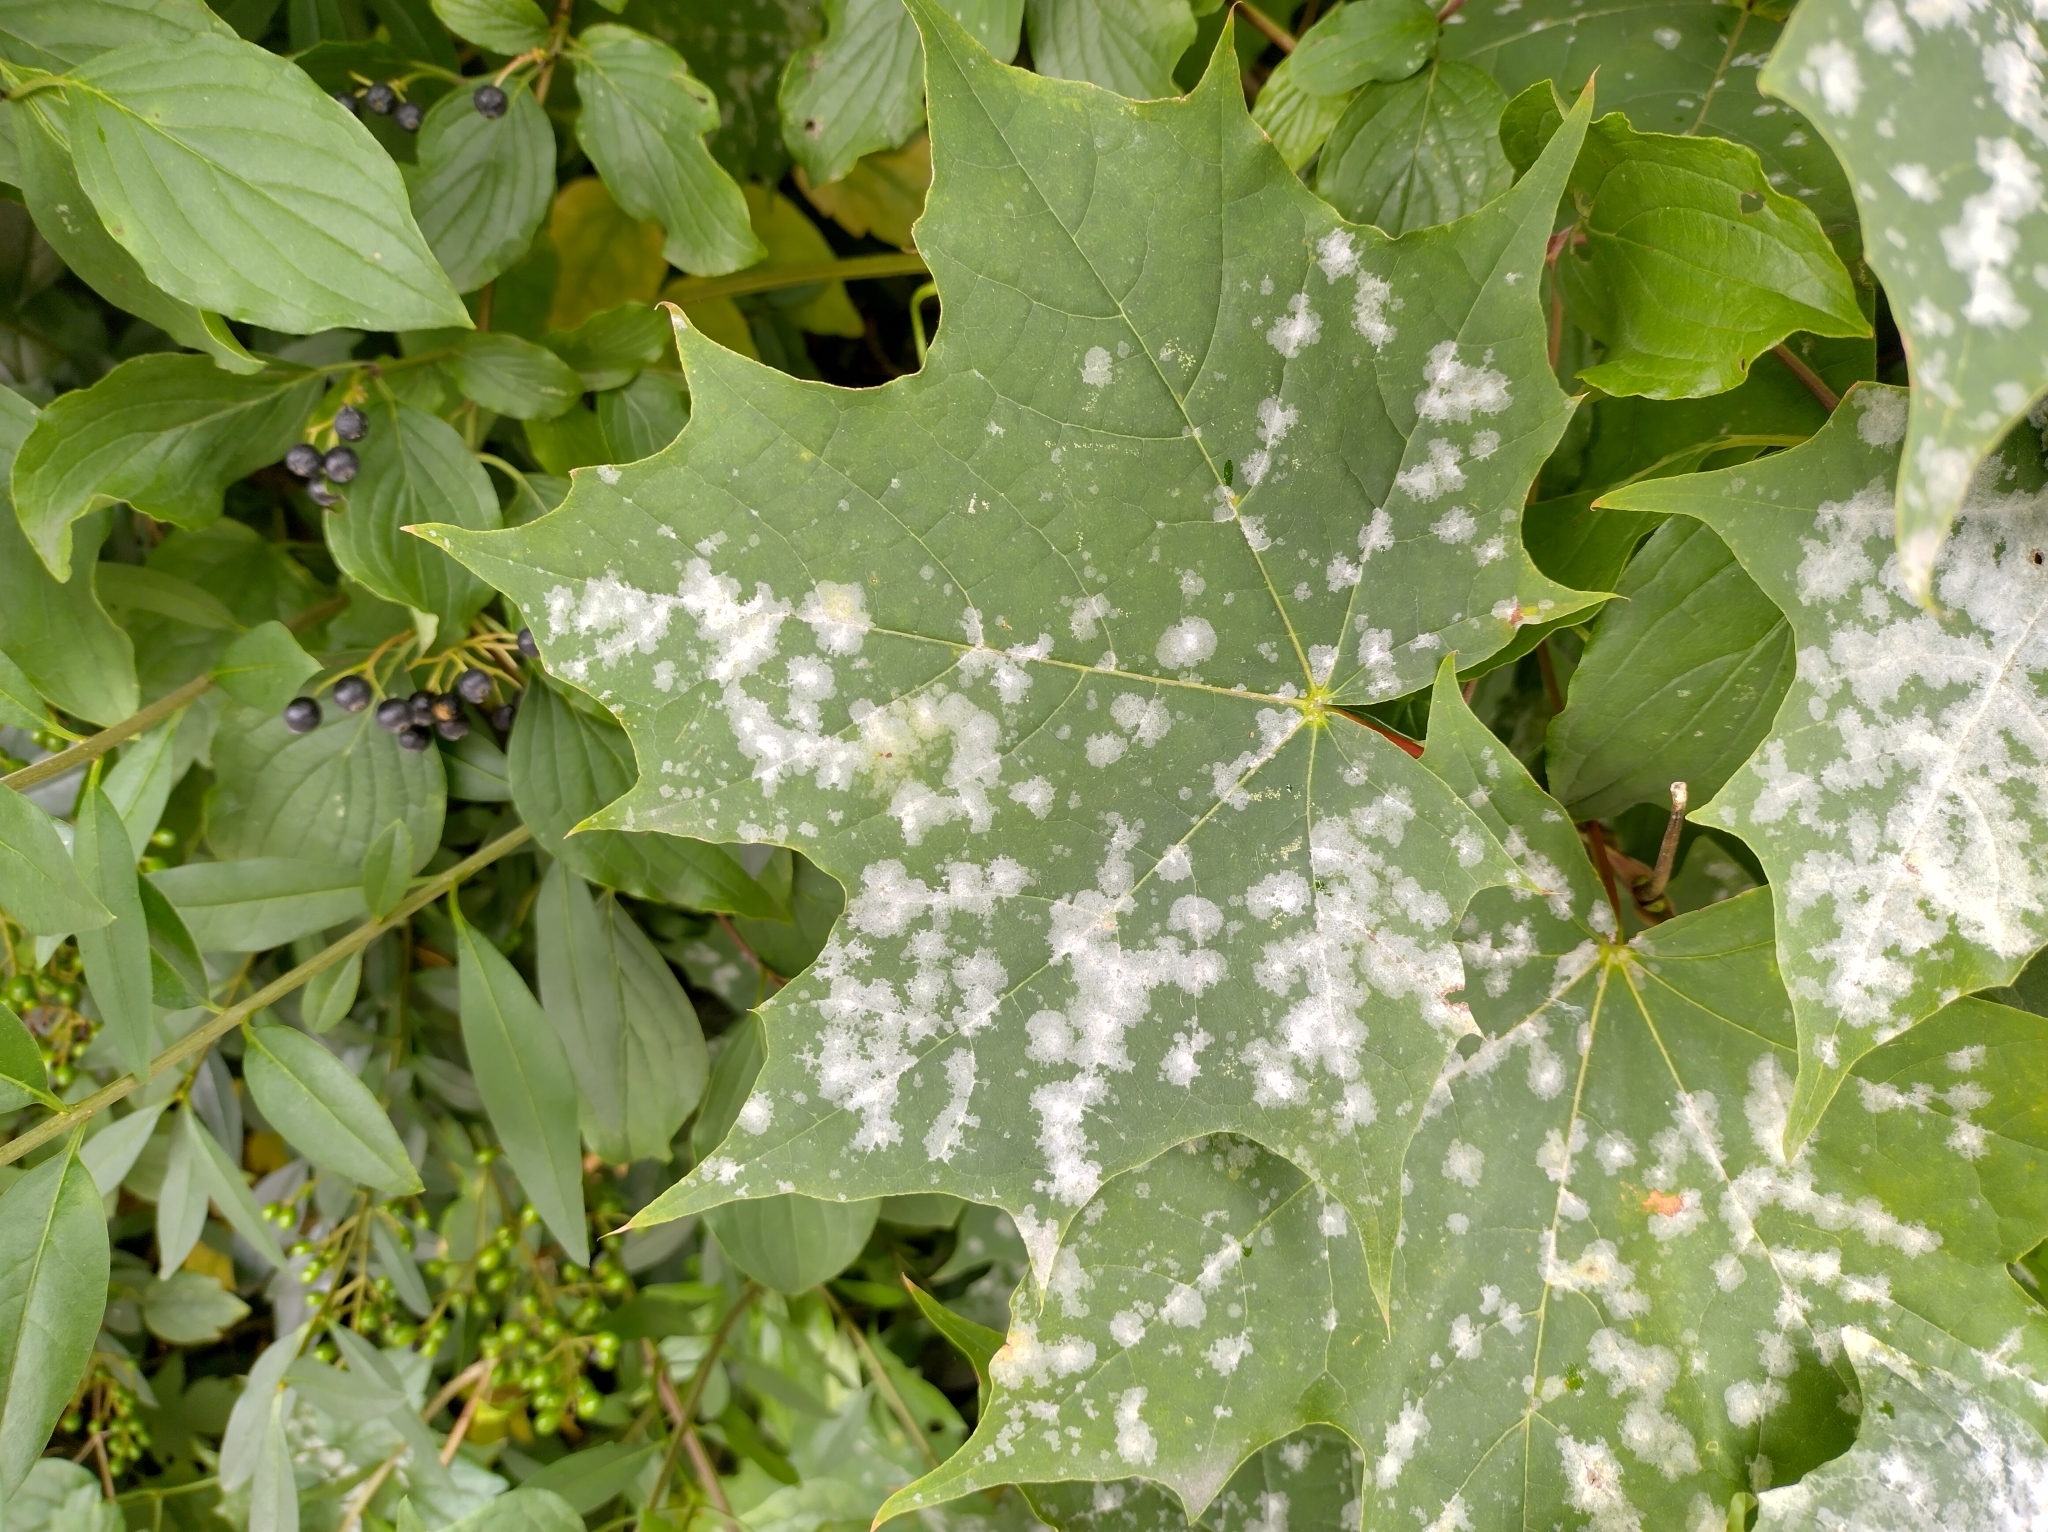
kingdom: Fungi
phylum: Ascomycota
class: Leotiomycetes
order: Helotiales
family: Erysiphaceae
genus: Sawadaea
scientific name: Sawadaea tulasnei
